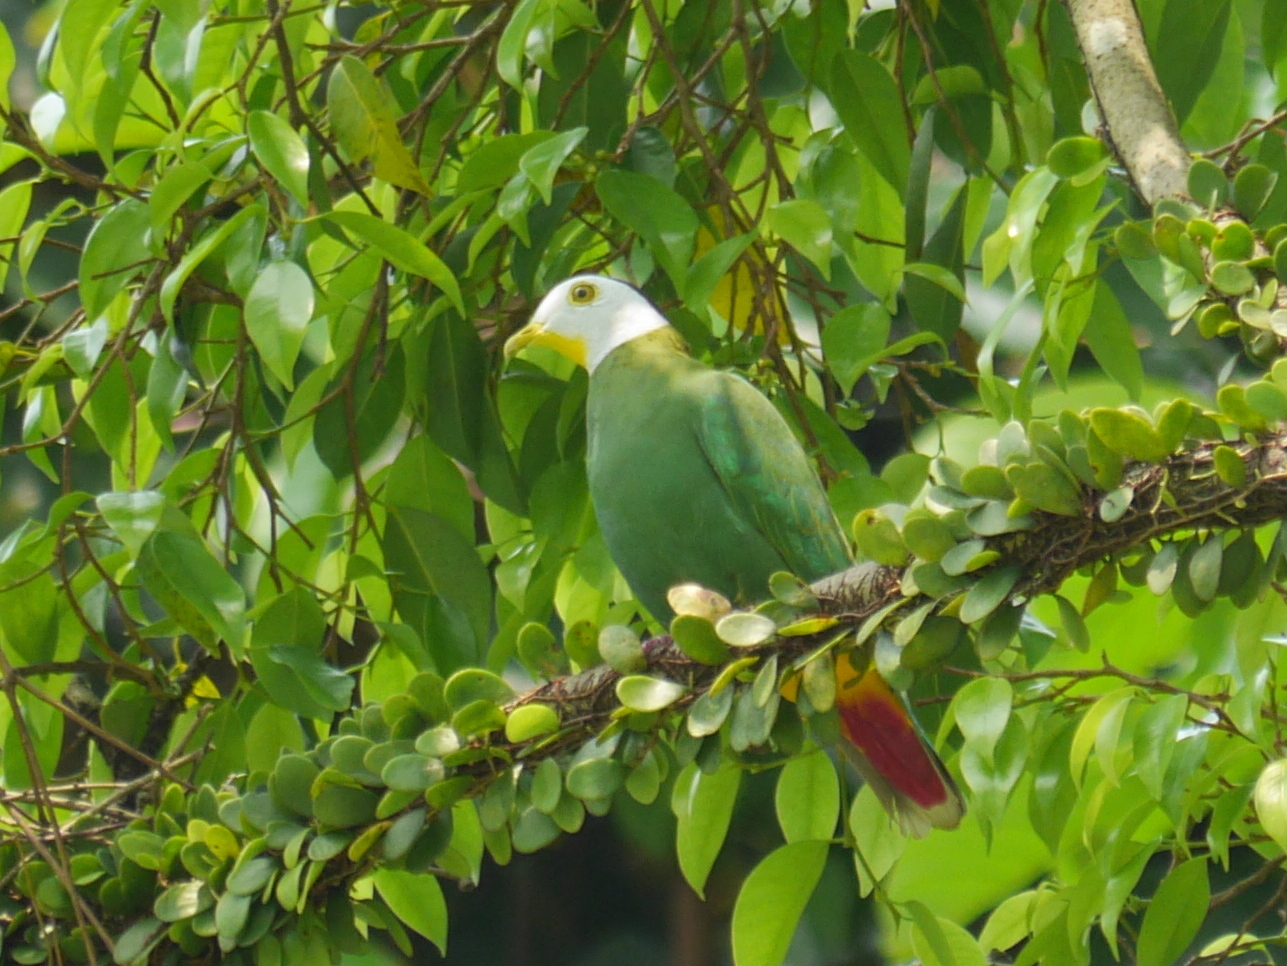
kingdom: Animalia
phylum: Chordata
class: Aves
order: Columbiformes
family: Columbidae
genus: Ptilinopus
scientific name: Ptilinopus melanospilus
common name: Black-naped fruit dove
